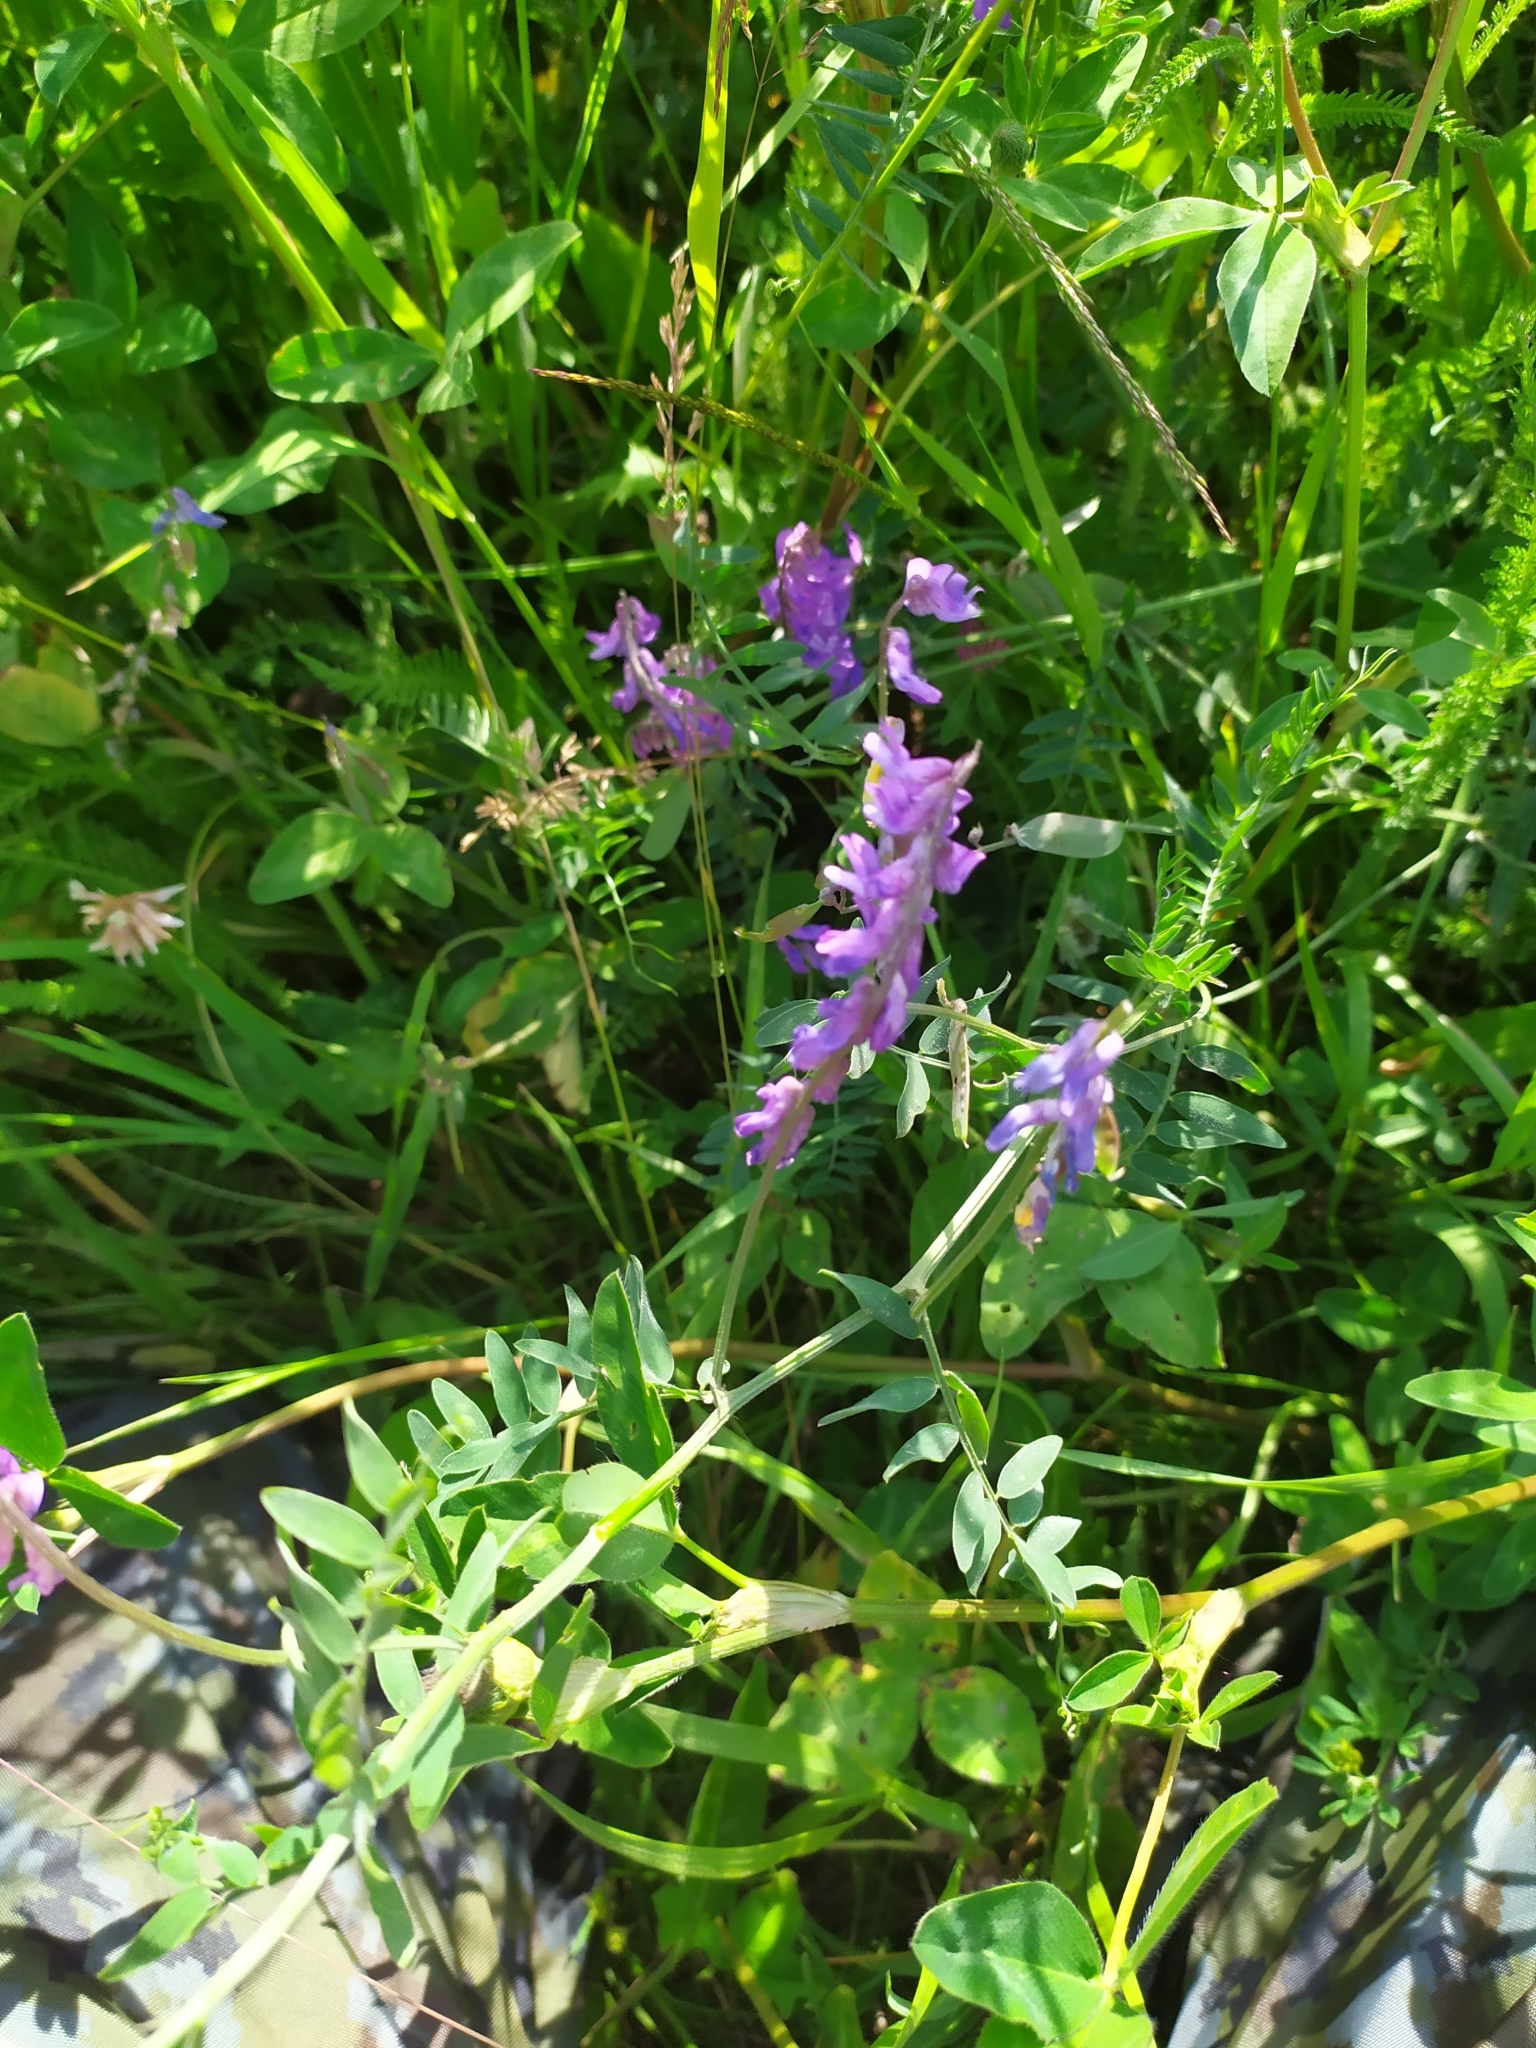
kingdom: Plantae
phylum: Tracheophyta
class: Magnoliopsida
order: Fabales
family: Fabaceae
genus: Vicia
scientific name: Vicia cracca
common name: Bird vetch
